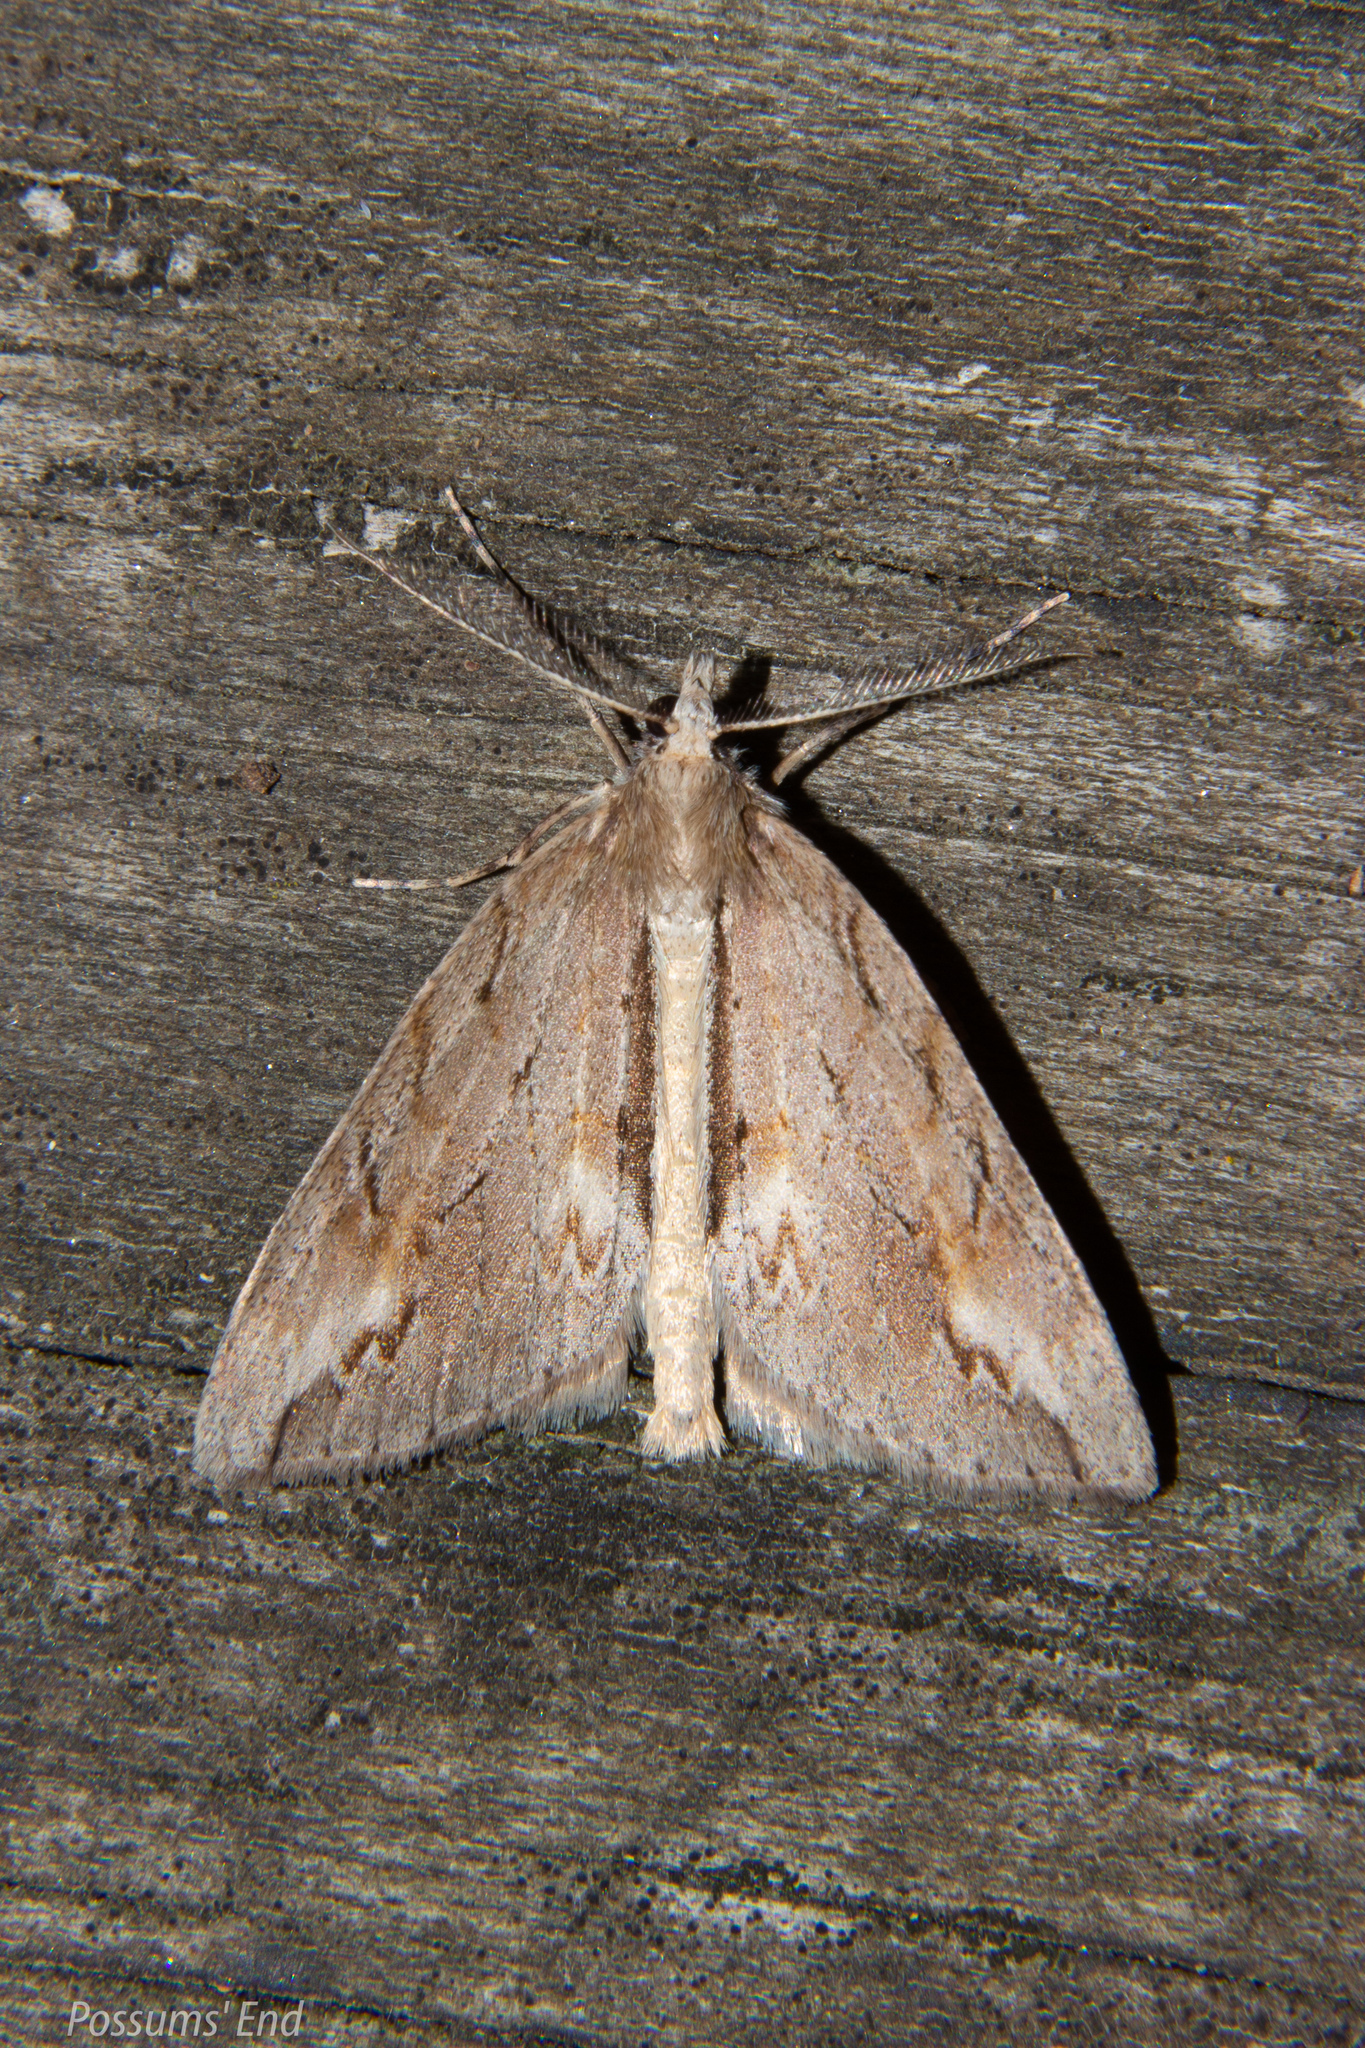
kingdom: Animalia
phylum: Arthropoda
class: Insecta
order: Lepidoptera
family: Geometridae
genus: Pseudocoremia
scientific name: Pseudocoremia lupinata
